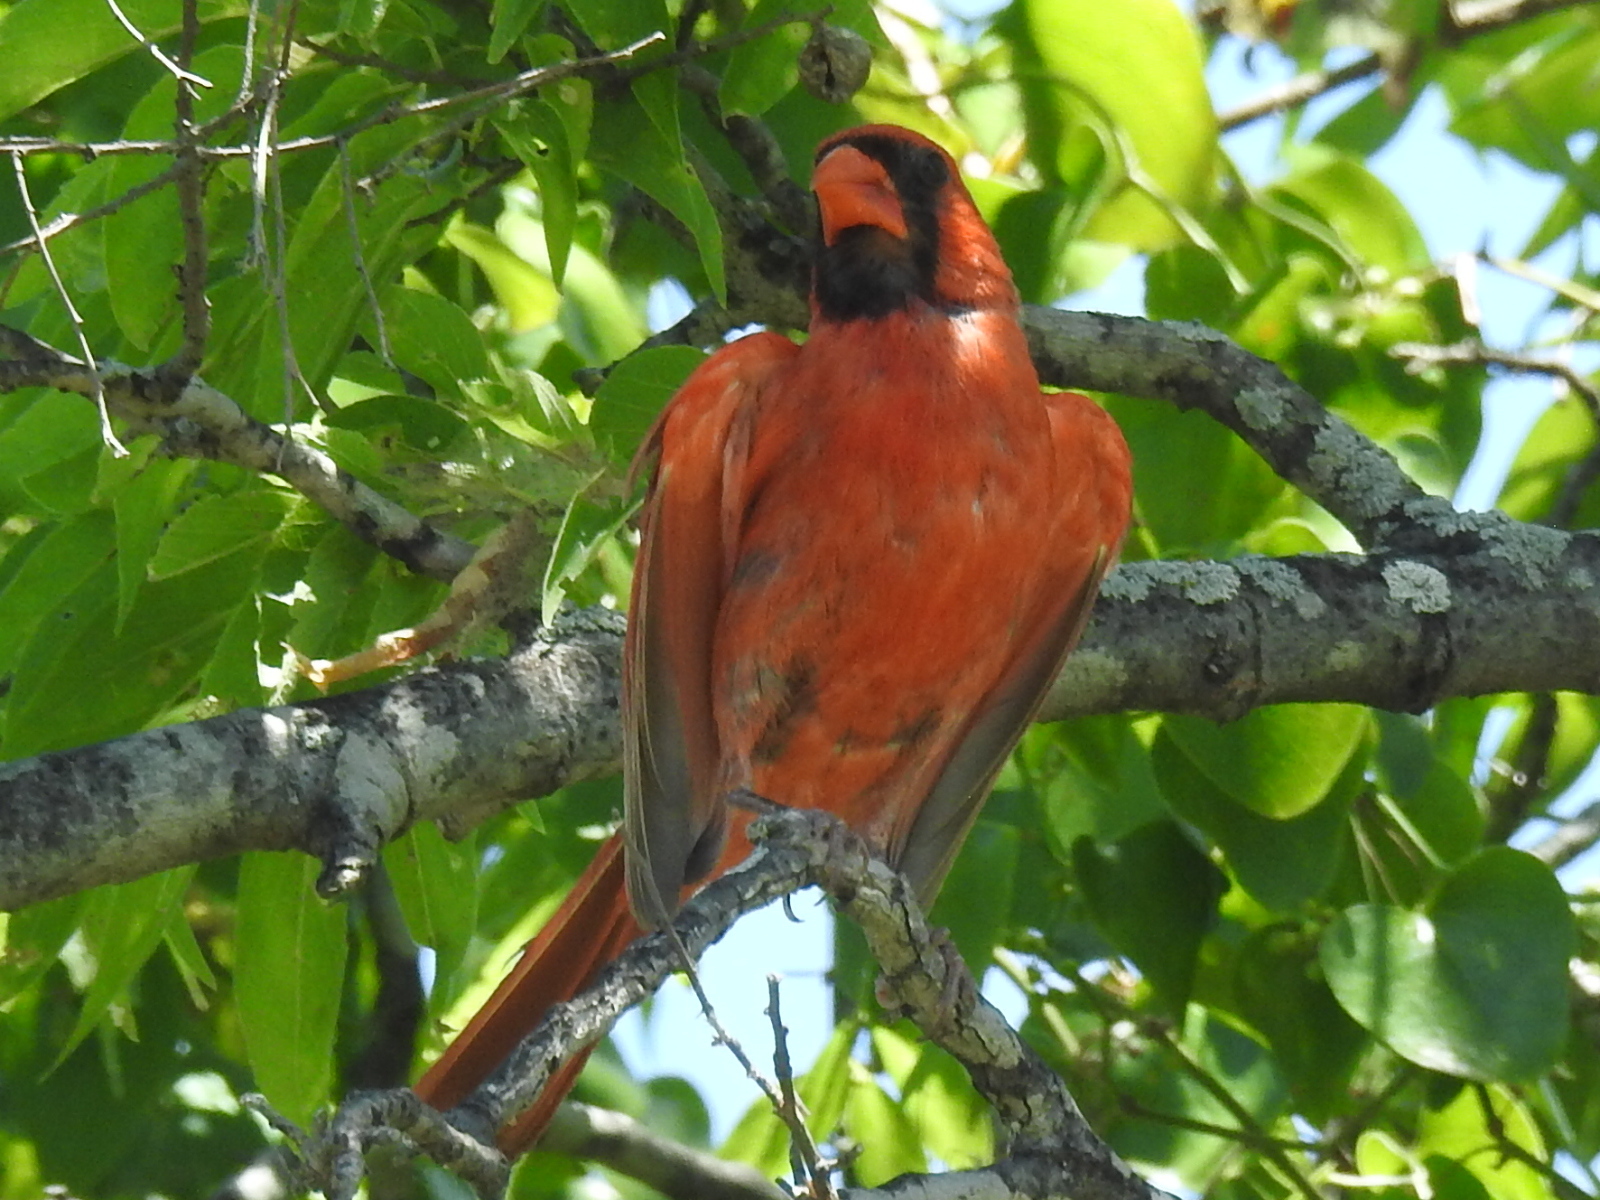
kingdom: Animalia
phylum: Chordata
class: Aves
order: Passeriformes
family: Cardinalidae
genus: Cardinalis
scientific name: Cardinalis cardinalis
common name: Northern cardinal
